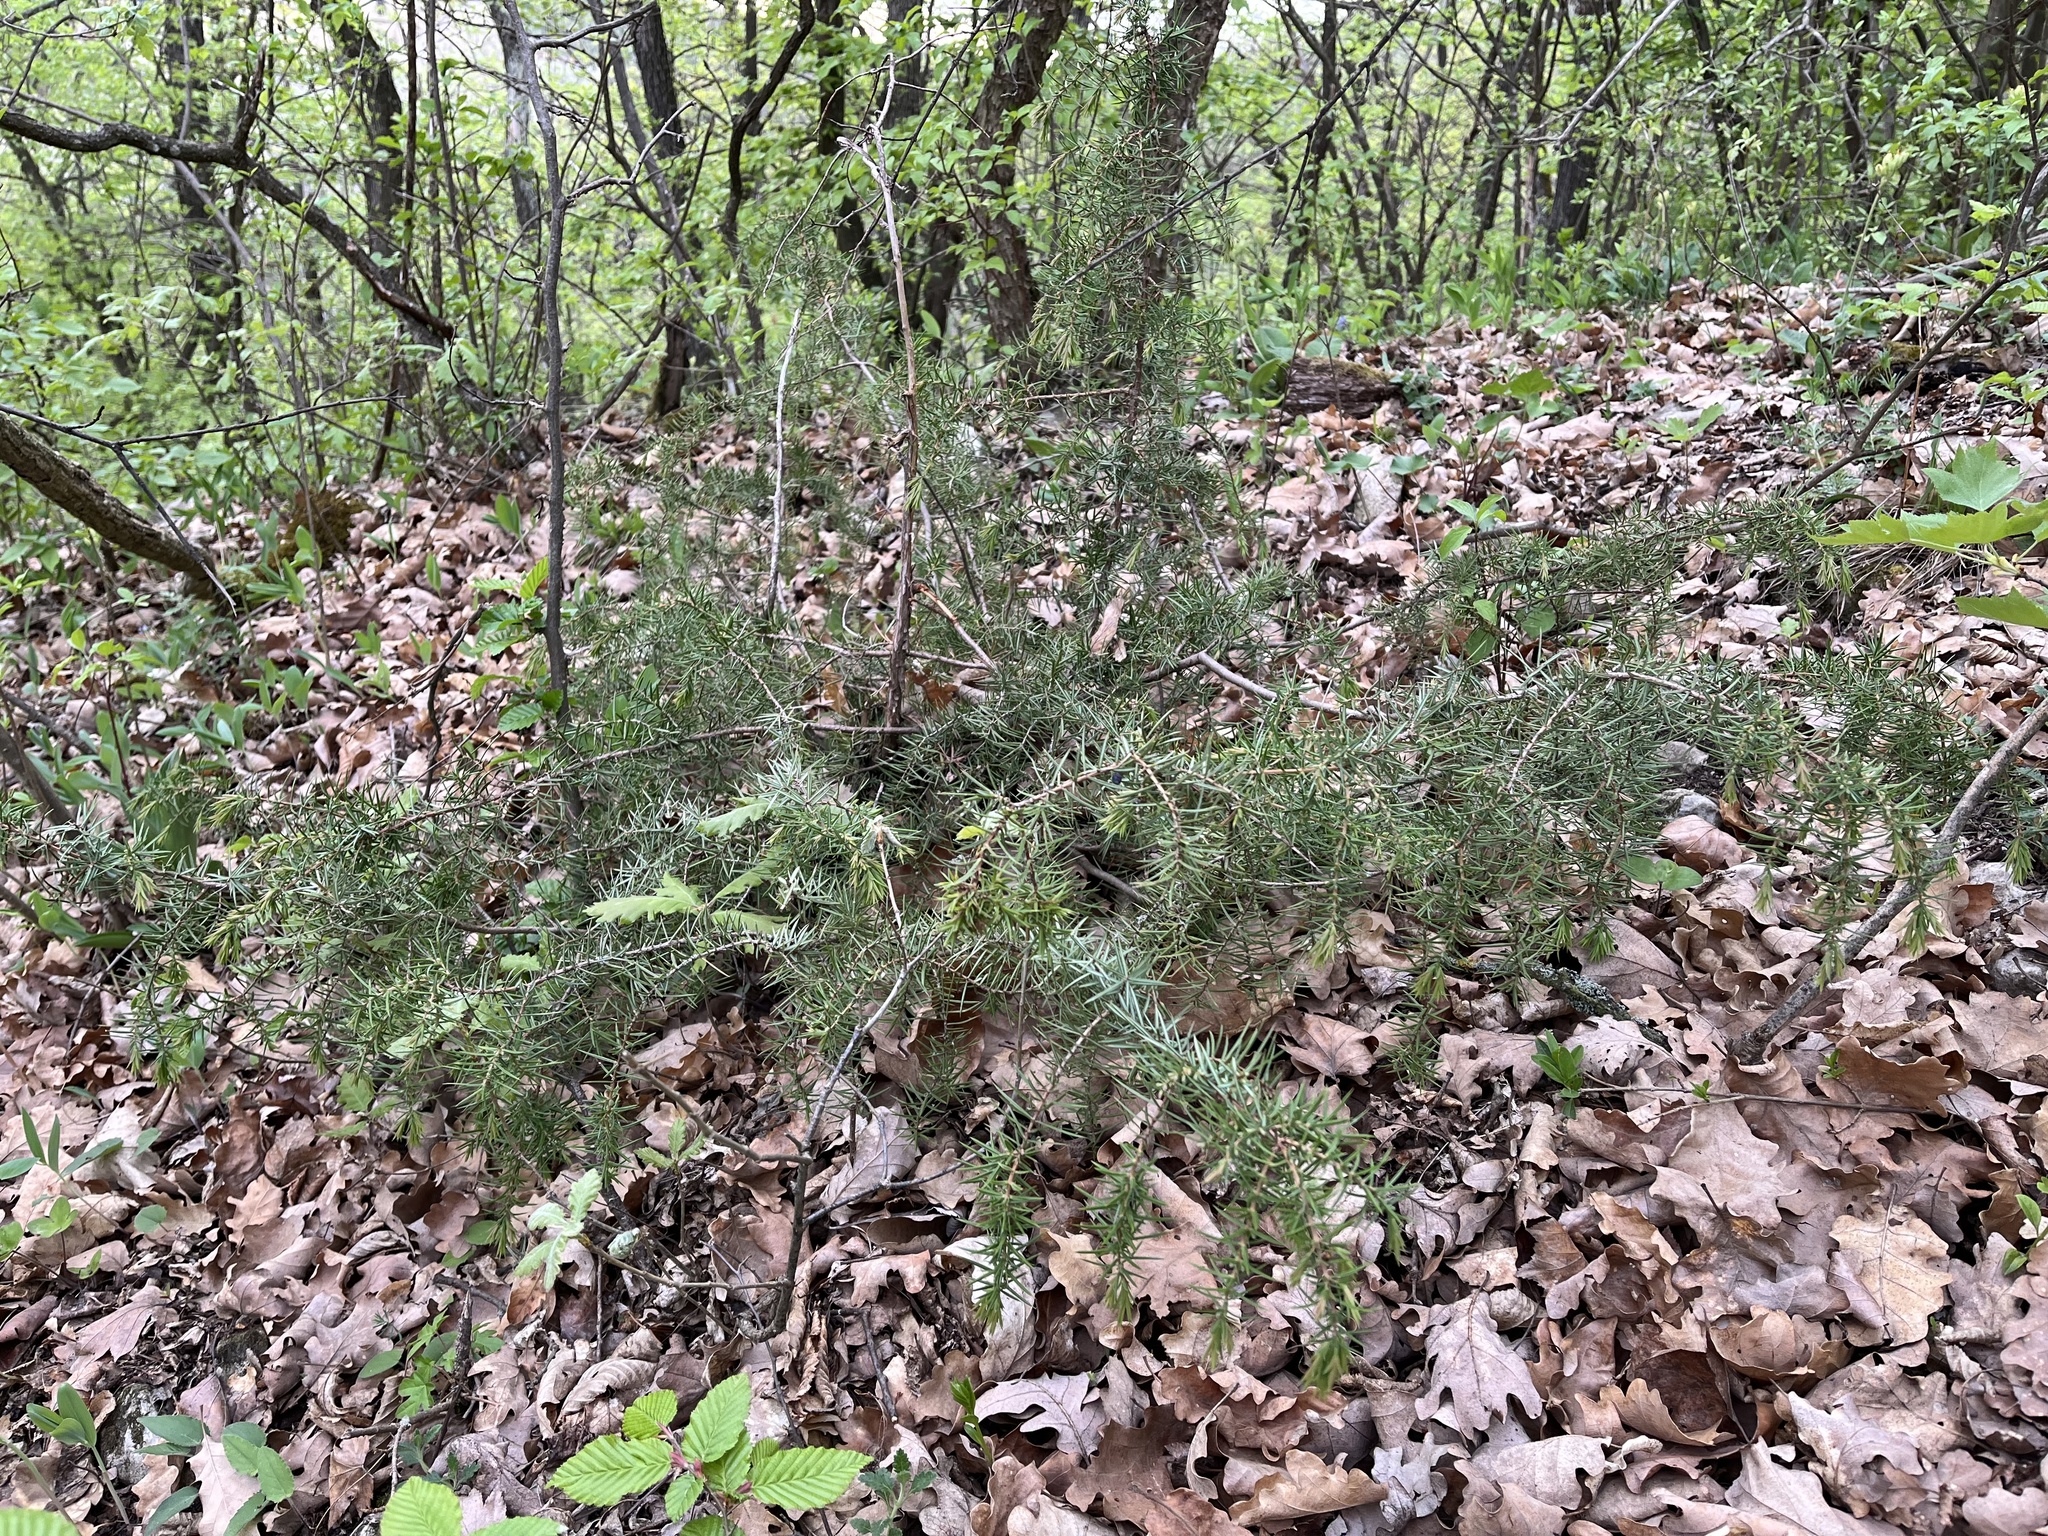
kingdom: Plantae
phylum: Tracheophyta
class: Pinopsida
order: Pinales
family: Cupressaceae
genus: Juniperus
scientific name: Juniperus communis
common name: Common juniper
